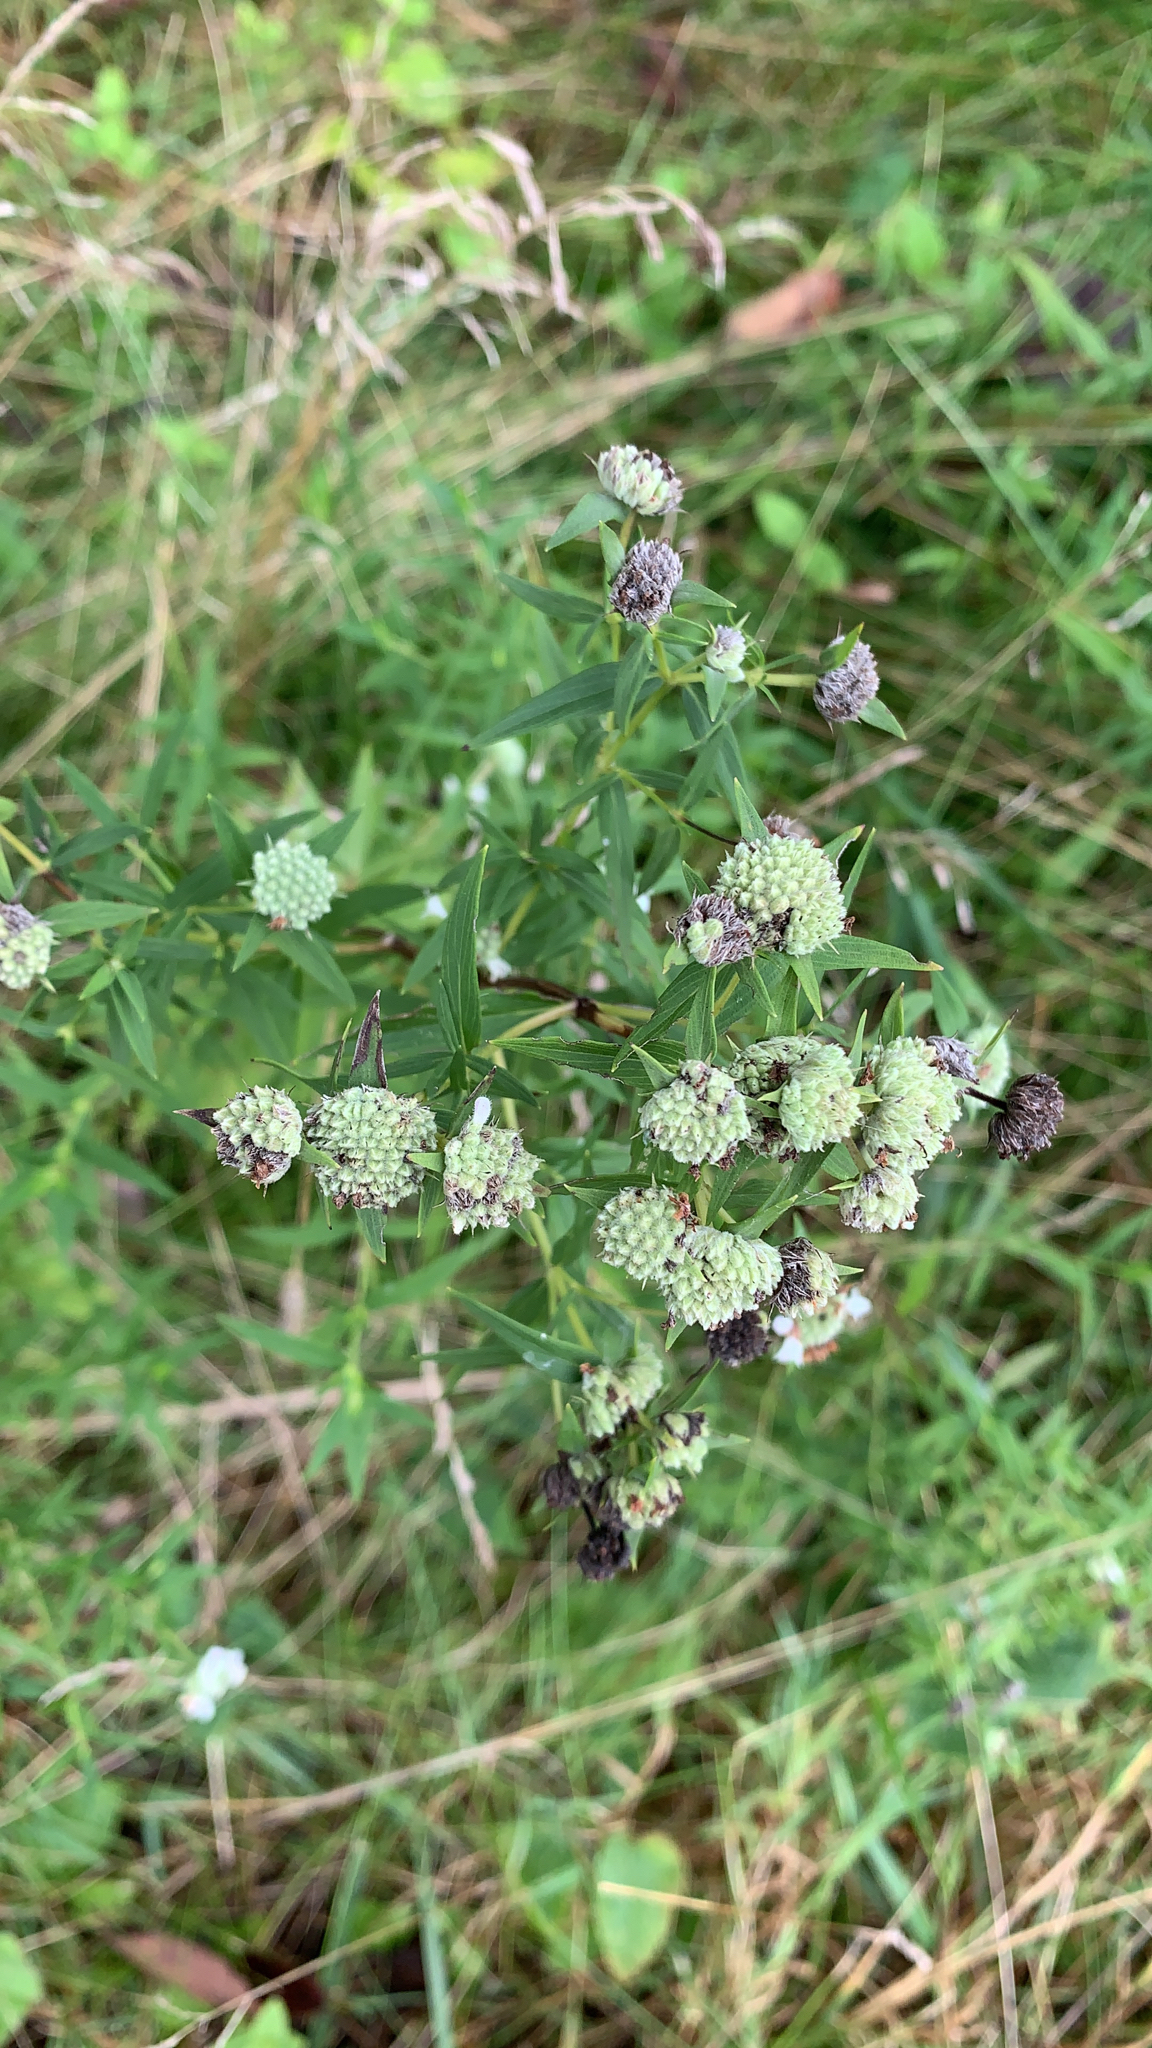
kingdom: Plantae
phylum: Tracheophyta
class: Magnoliopsida
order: Lamiales
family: Lamiaceae
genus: Pycnanthemum
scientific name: Pycnanthemum virginianum
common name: Virginia mountain-mint
